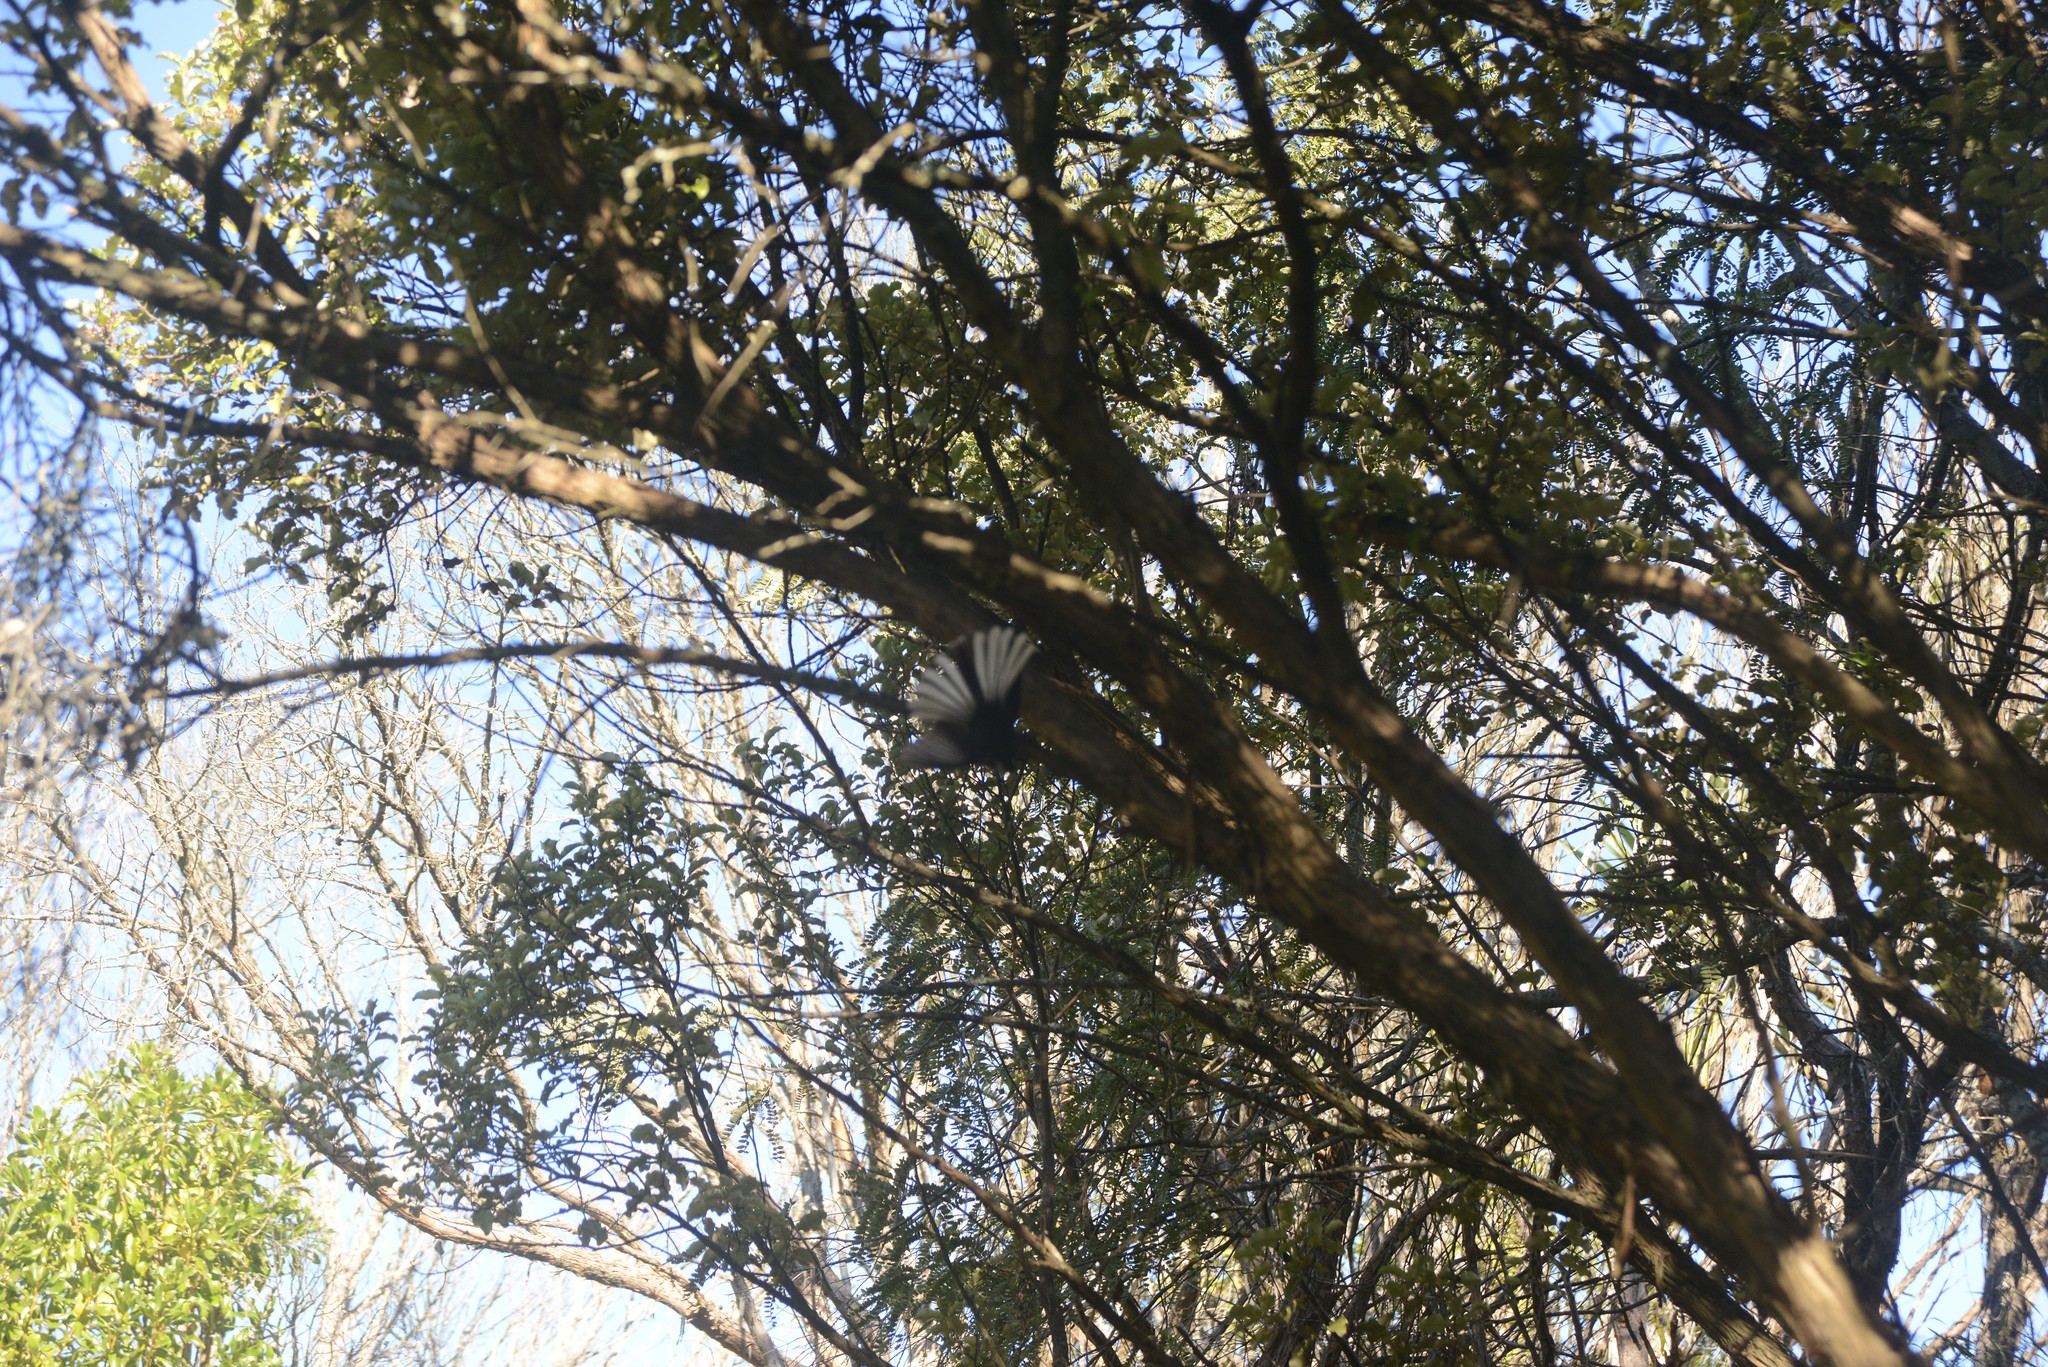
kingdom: Animalia
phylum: Chordata
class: Aves
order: Passeriformes
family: Rhipiduridae
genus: Rhipidura
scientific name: Rhipidura fuliginosa
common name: New zealand fantail
